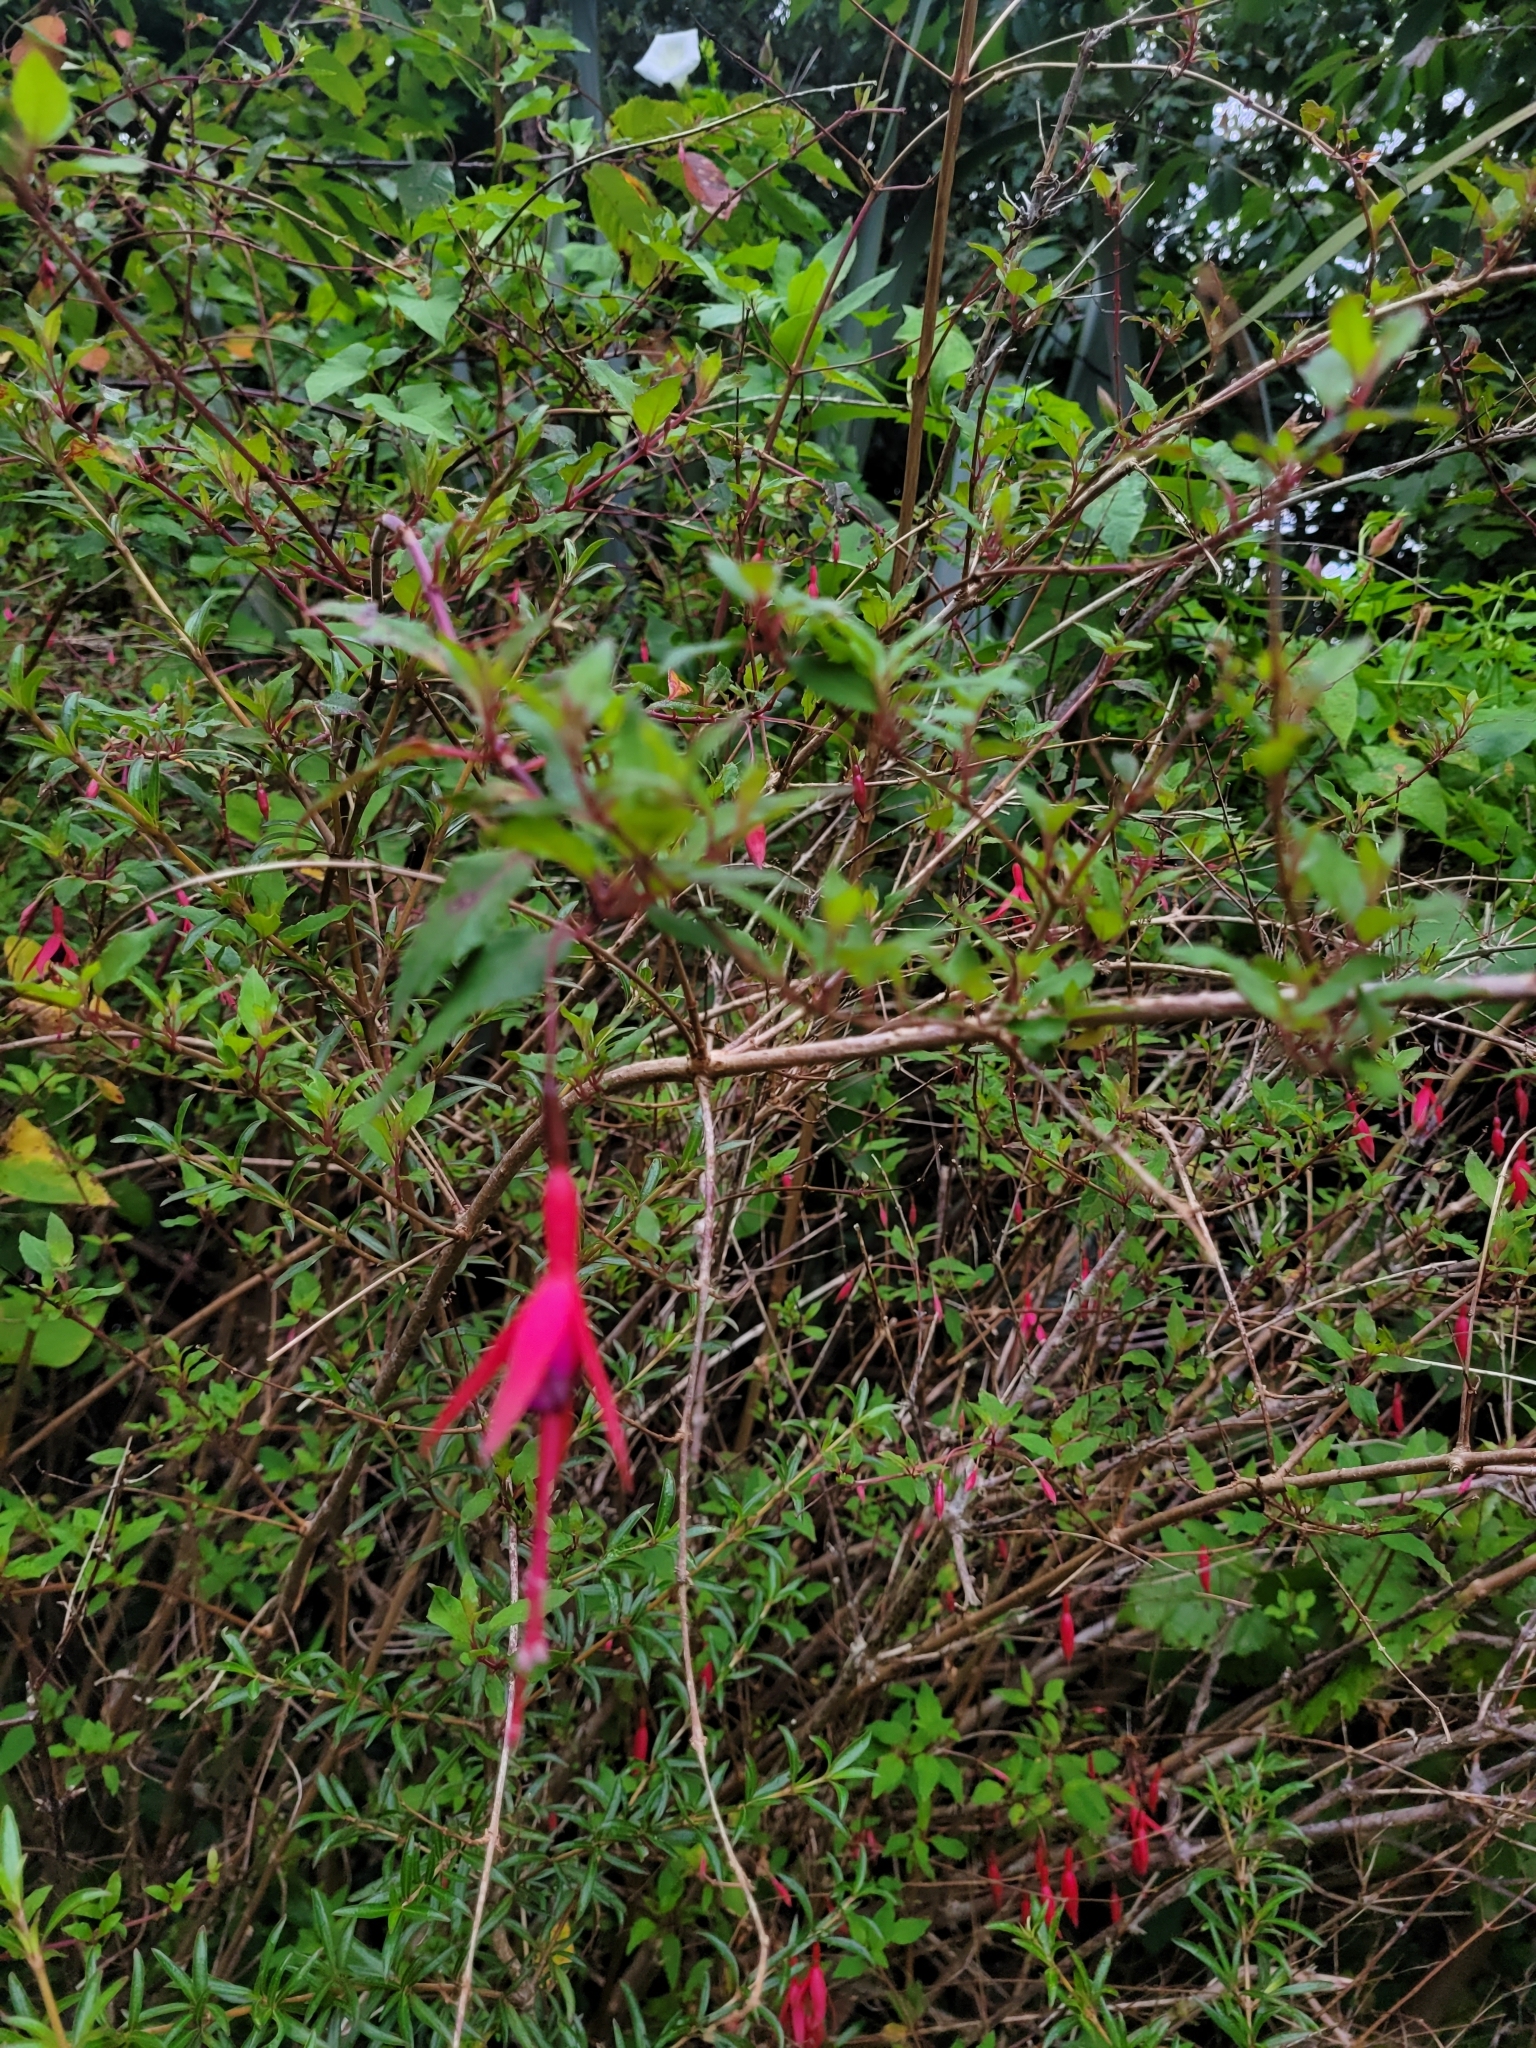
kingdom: Plantae
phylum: Tracheophyta
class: Magnoliopsida
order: Myrtales
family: Onagraceae
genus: Fuchsia
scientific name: Fuchsia magellanica
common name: Hardy fuchsia
